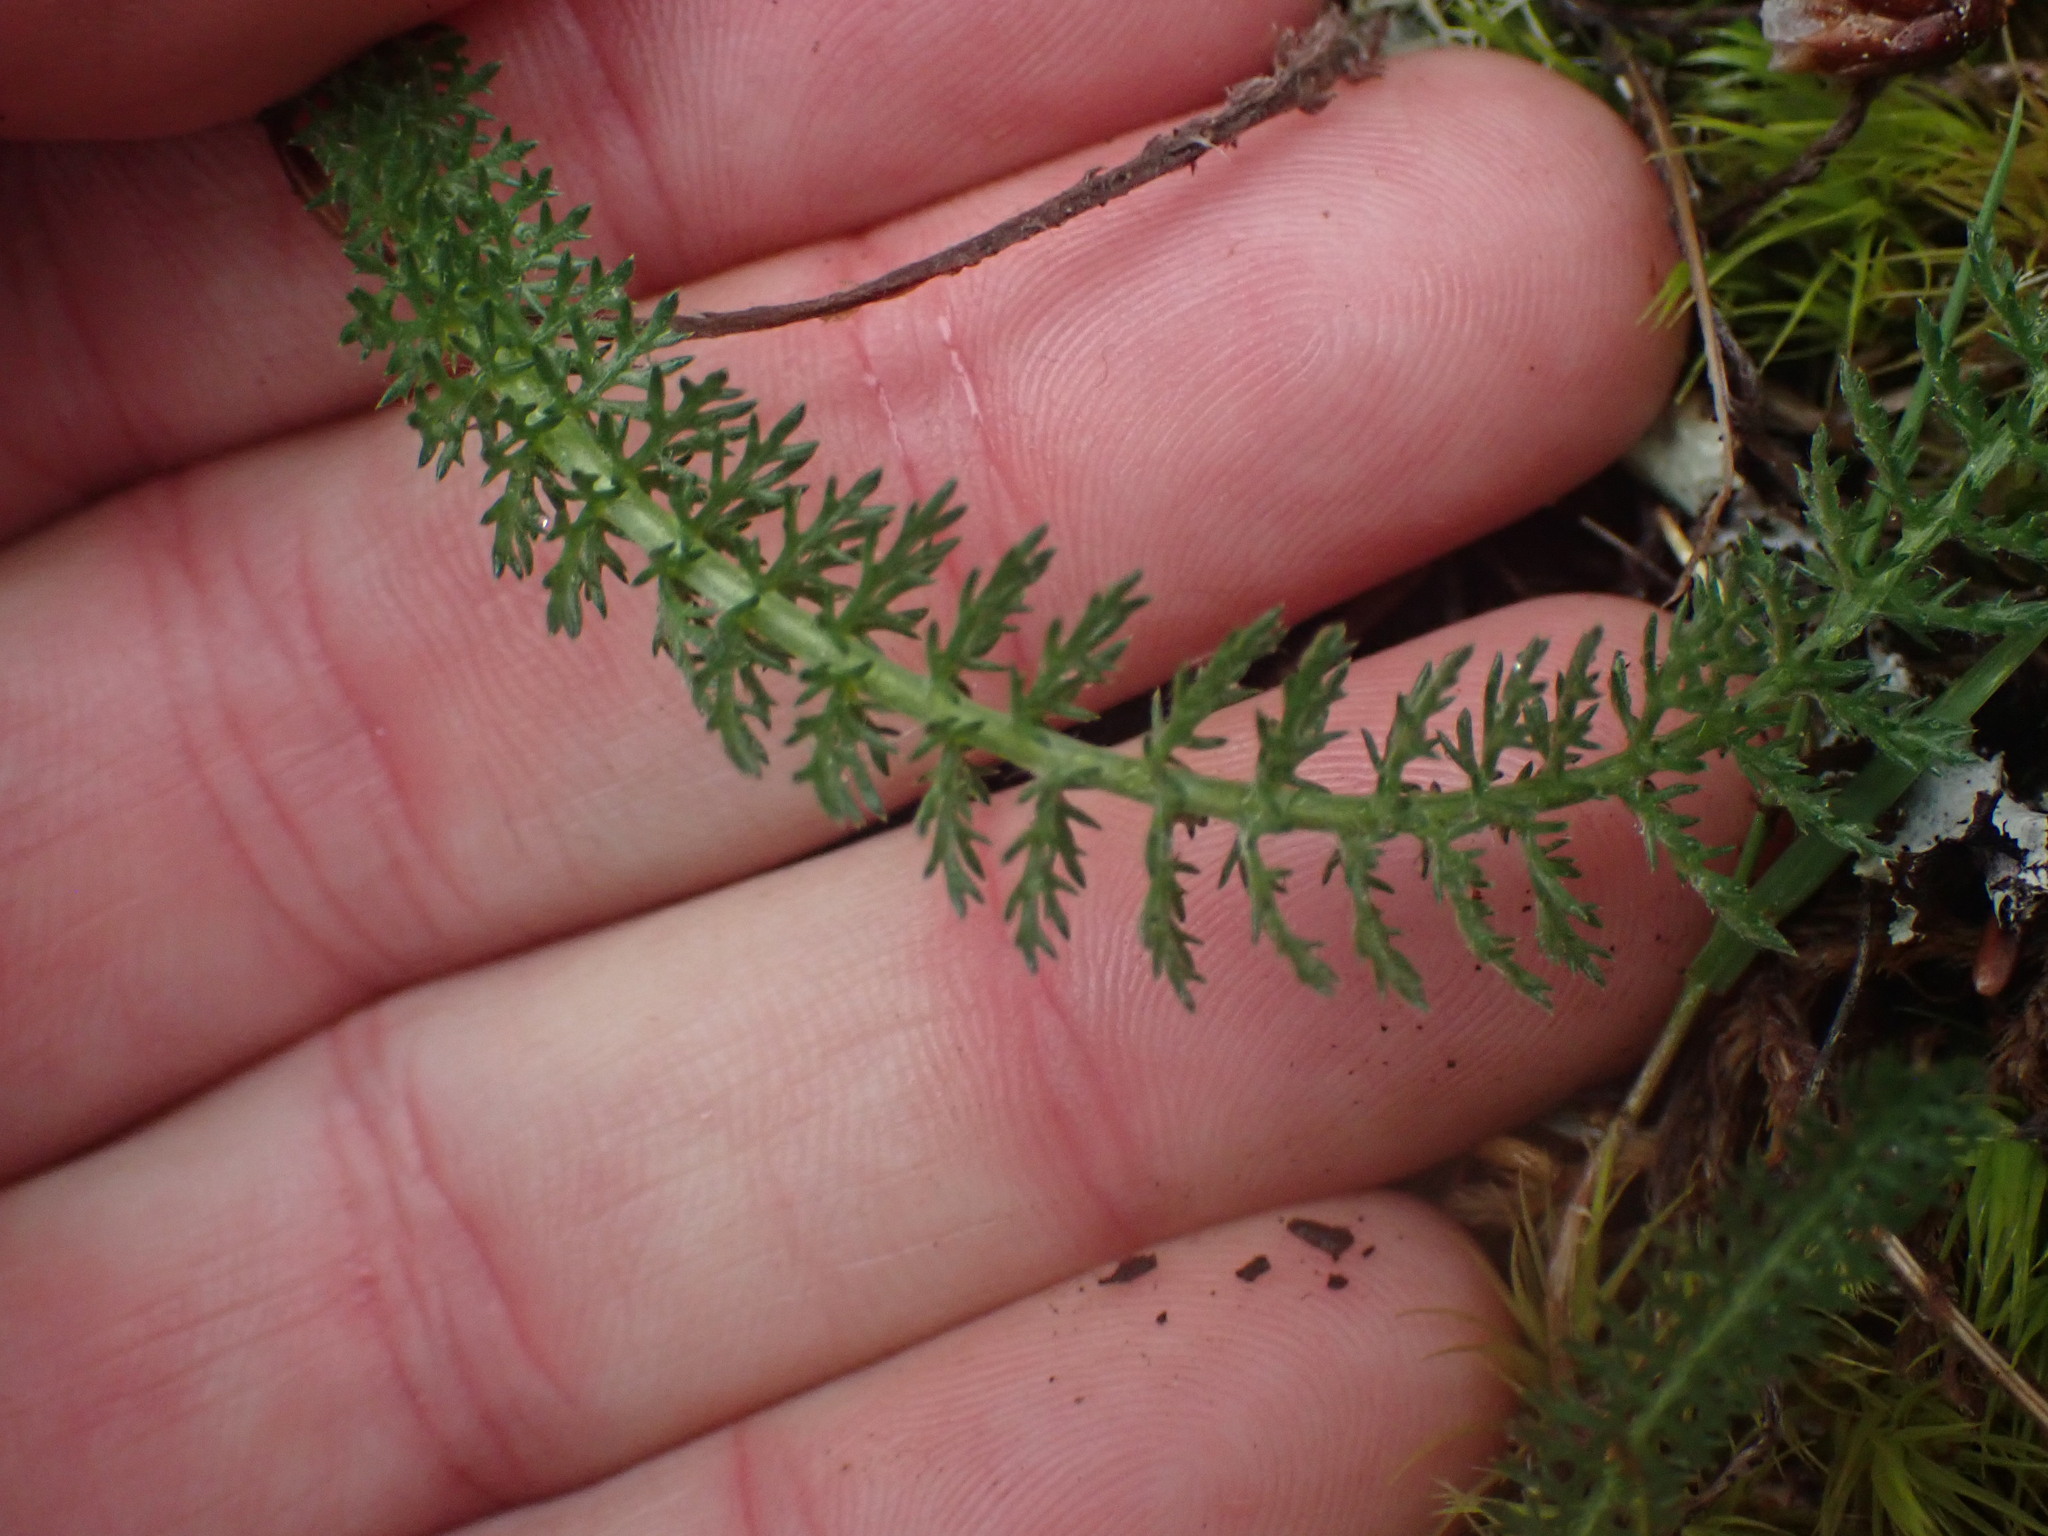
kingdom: Plantae
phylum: Tracheophyta
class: Magnoliopsida
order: Asterales
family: Asteraceae
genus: Achillea
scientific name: Achillea millefolium
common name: Yarrow
